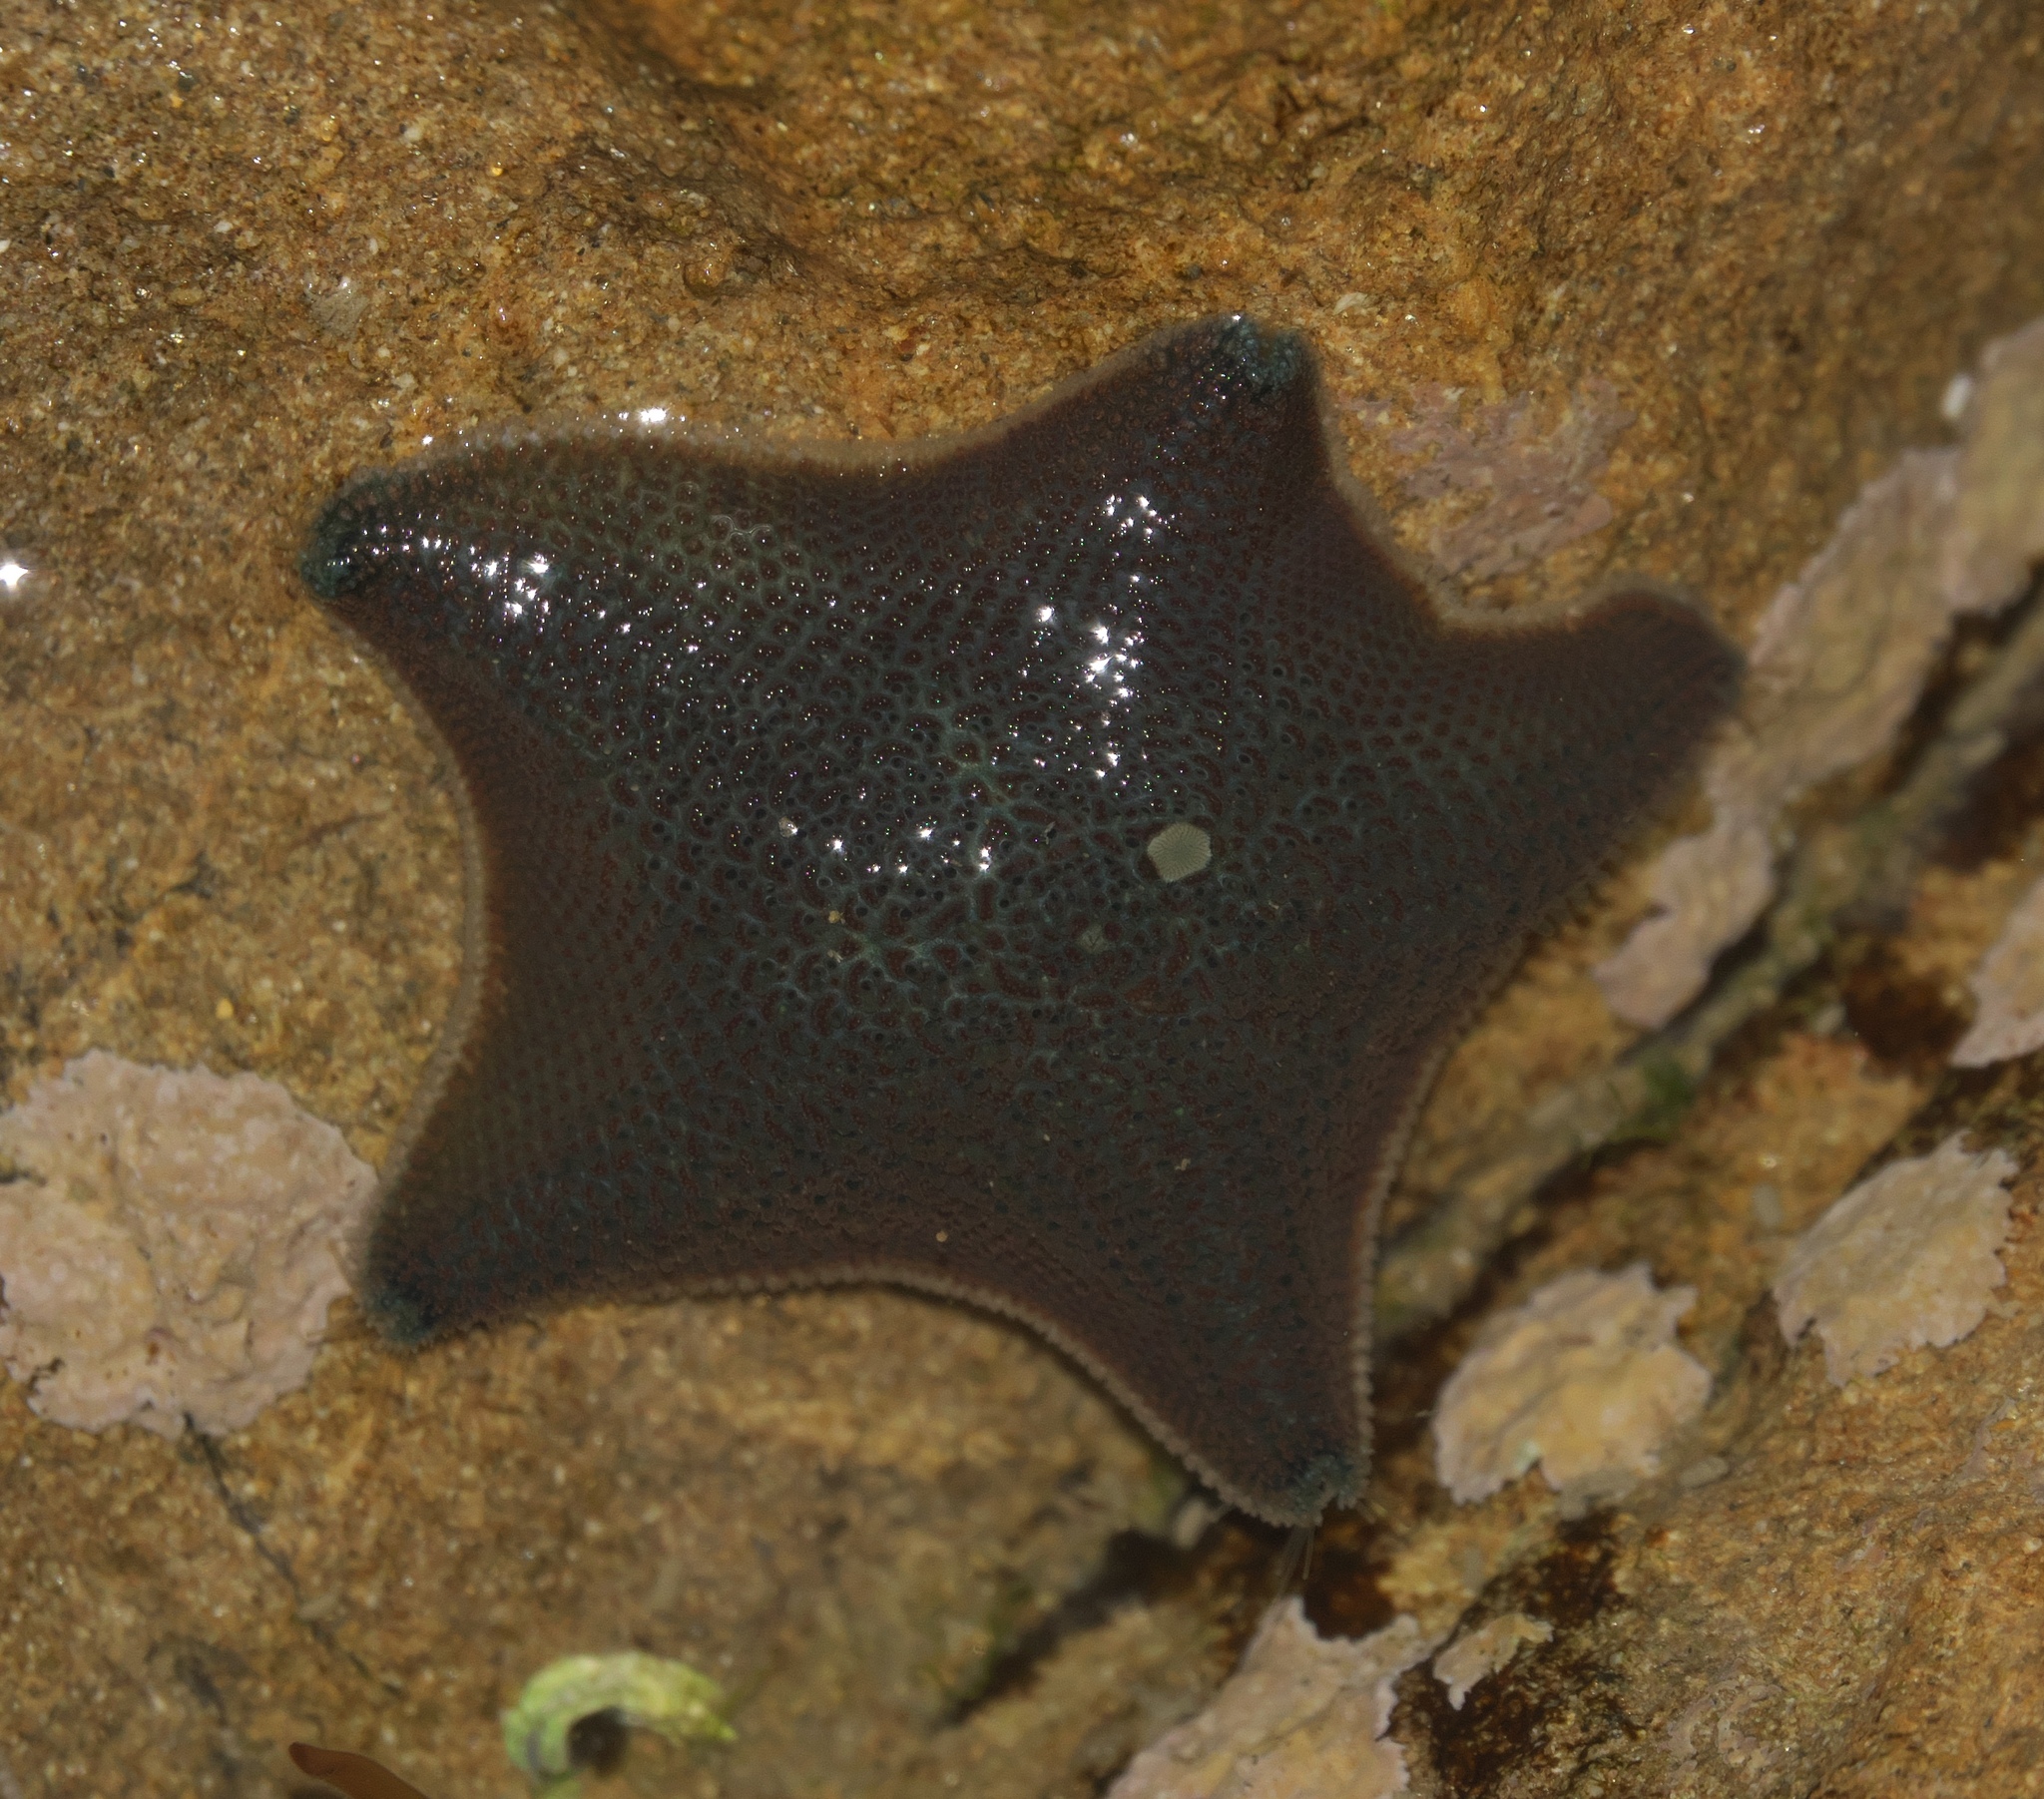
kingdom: Animalia
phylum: Echinodermata
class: Asteroidea
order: Valvatida
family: Asterinidae
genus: Patiriella
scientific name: Patiriella regularis
